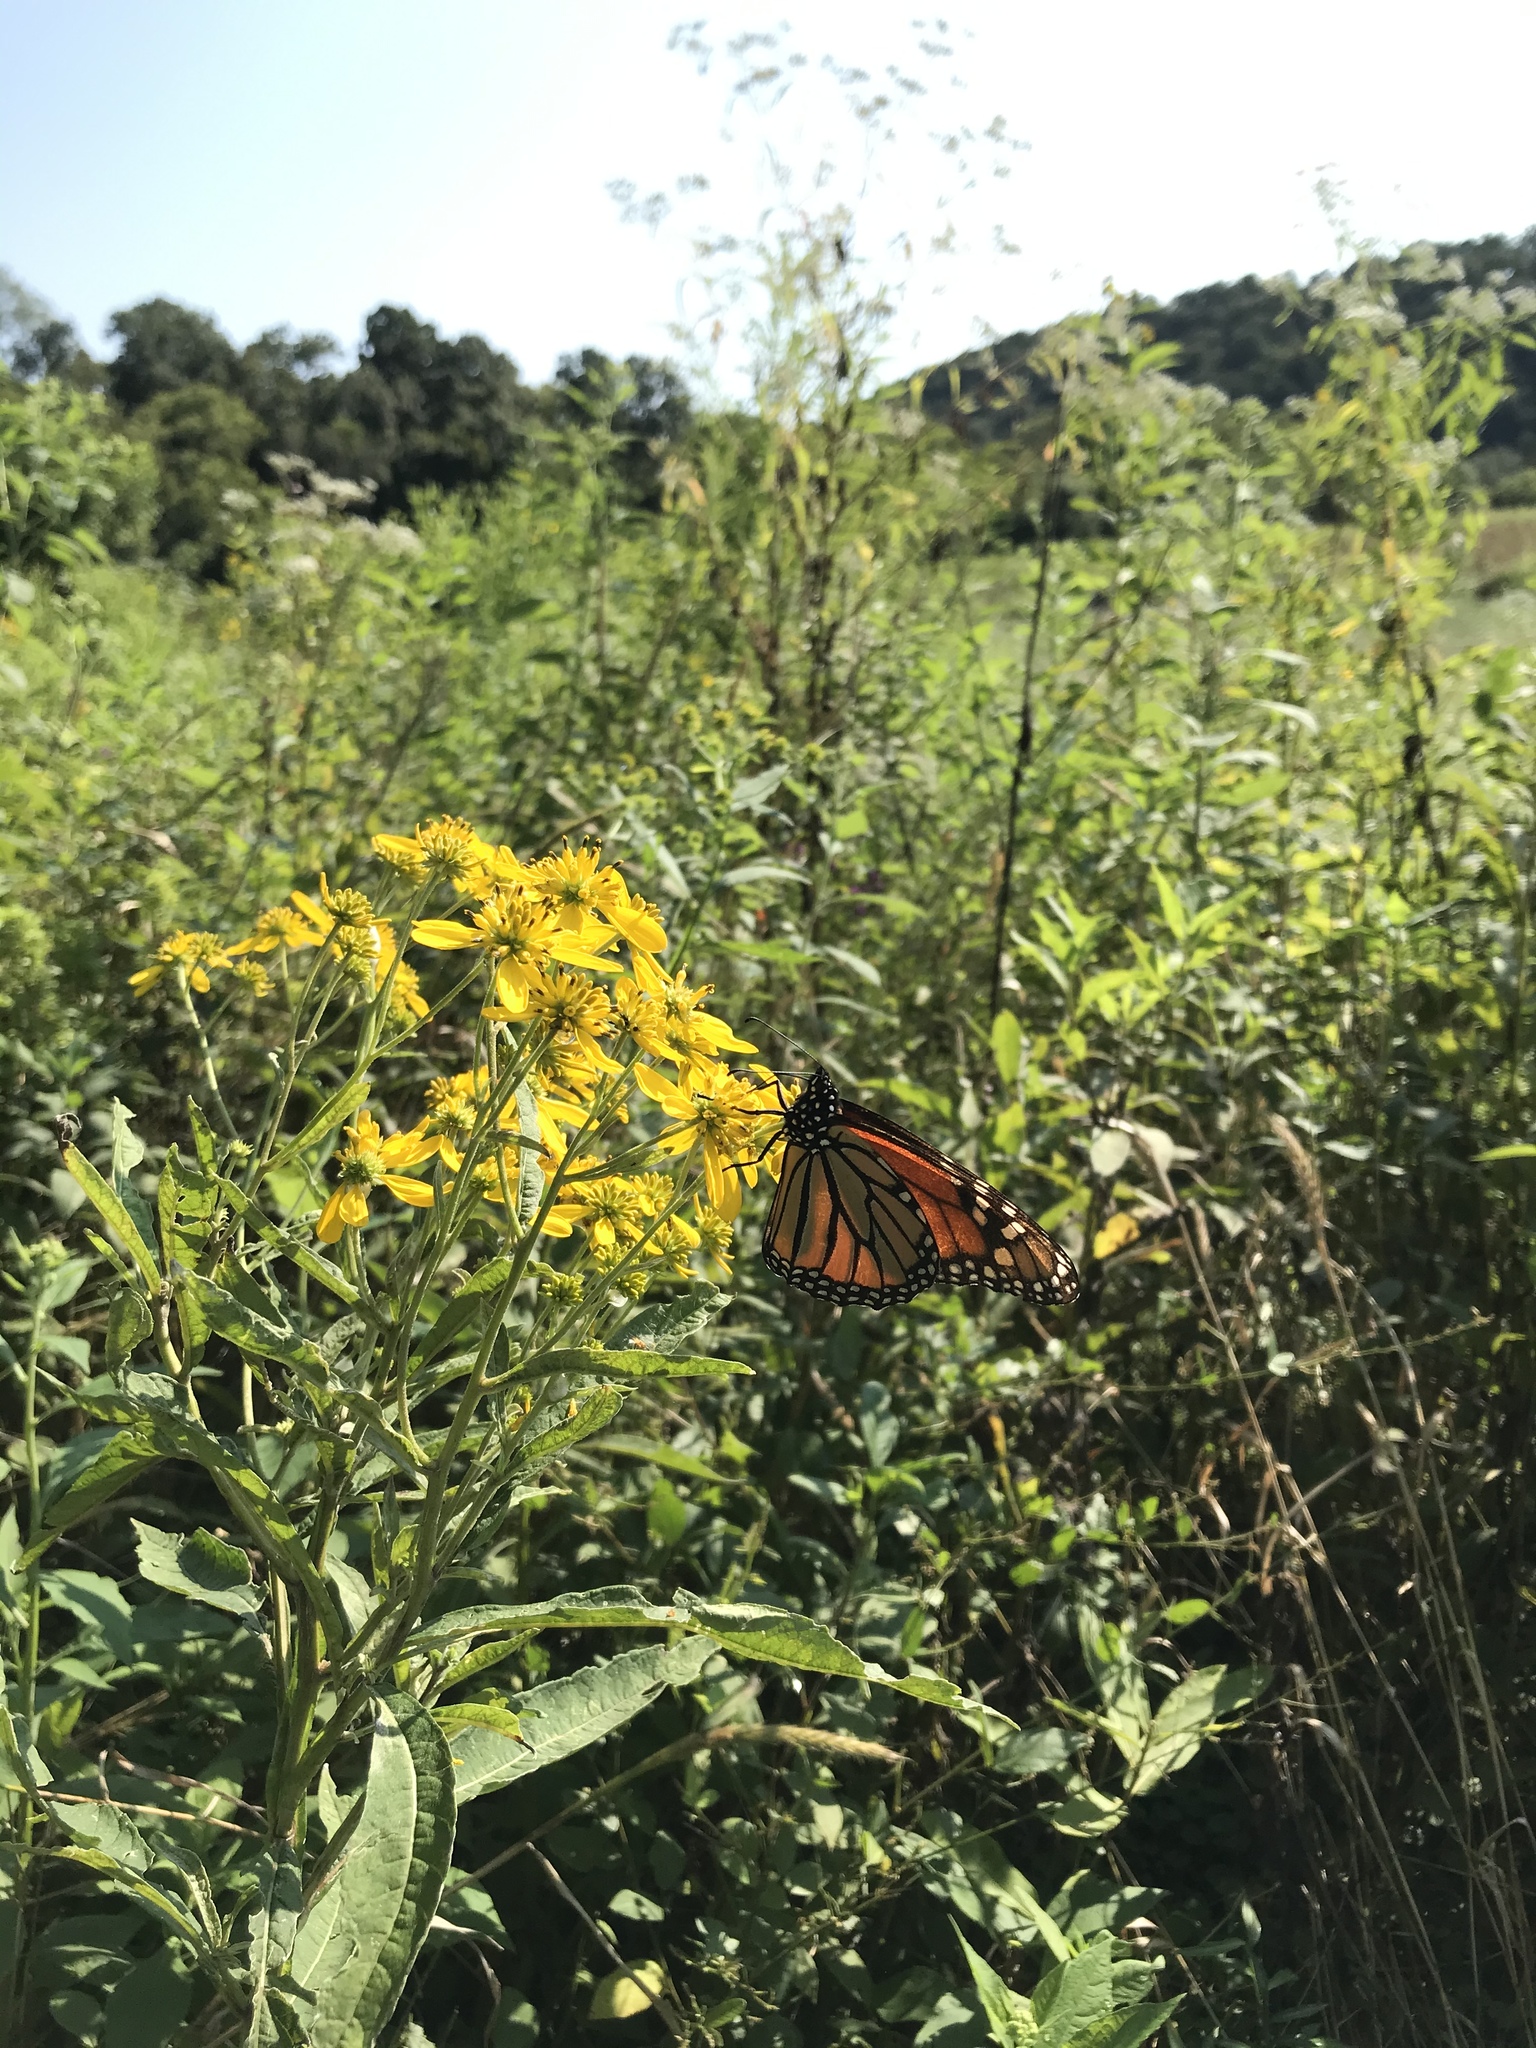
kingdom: Animalia
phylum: Arthropoda
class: Insecta
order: Lepidoptera
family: Nymphalidae
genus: Danaus
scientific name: Danaus plexippus
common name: Monarch
